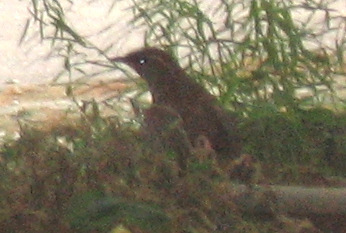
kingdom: Animalia
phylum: Chordata
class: Aves
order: Passeriformes
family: Troglodytidae
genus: Thryothorus
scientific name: Thryothorus ludovicianus
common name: Carolina wren
